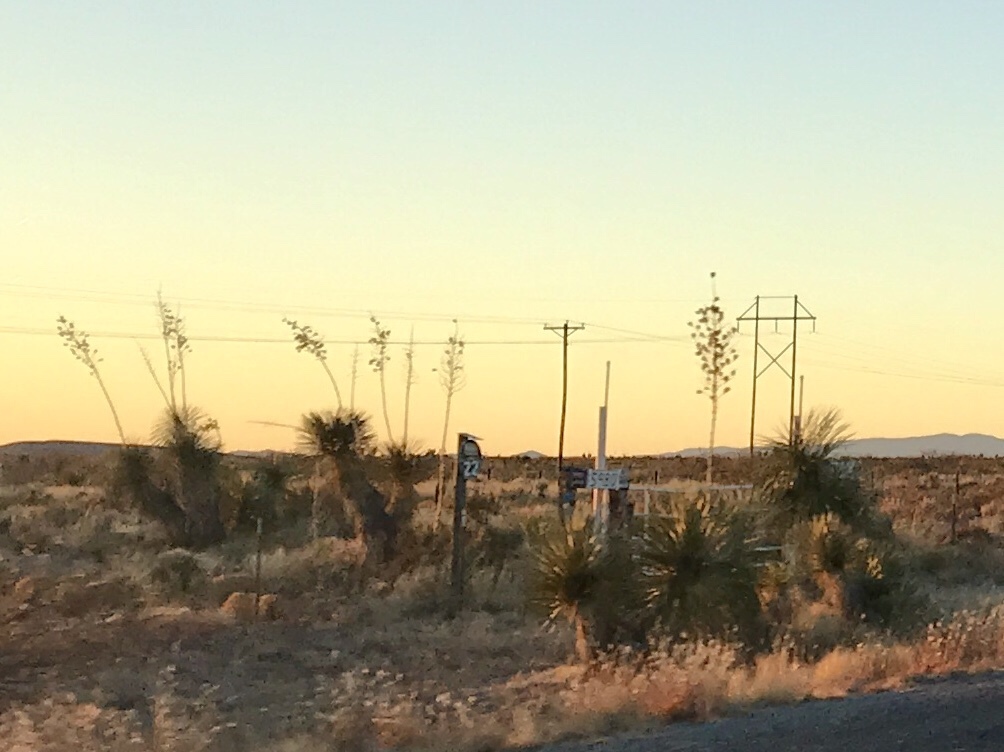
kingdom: Plantae
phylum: Tracheophyta
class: Liliopsida
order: Asparagales
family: Asparagaceae
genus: Yucca
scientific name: Yucca elata
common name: Palmella
